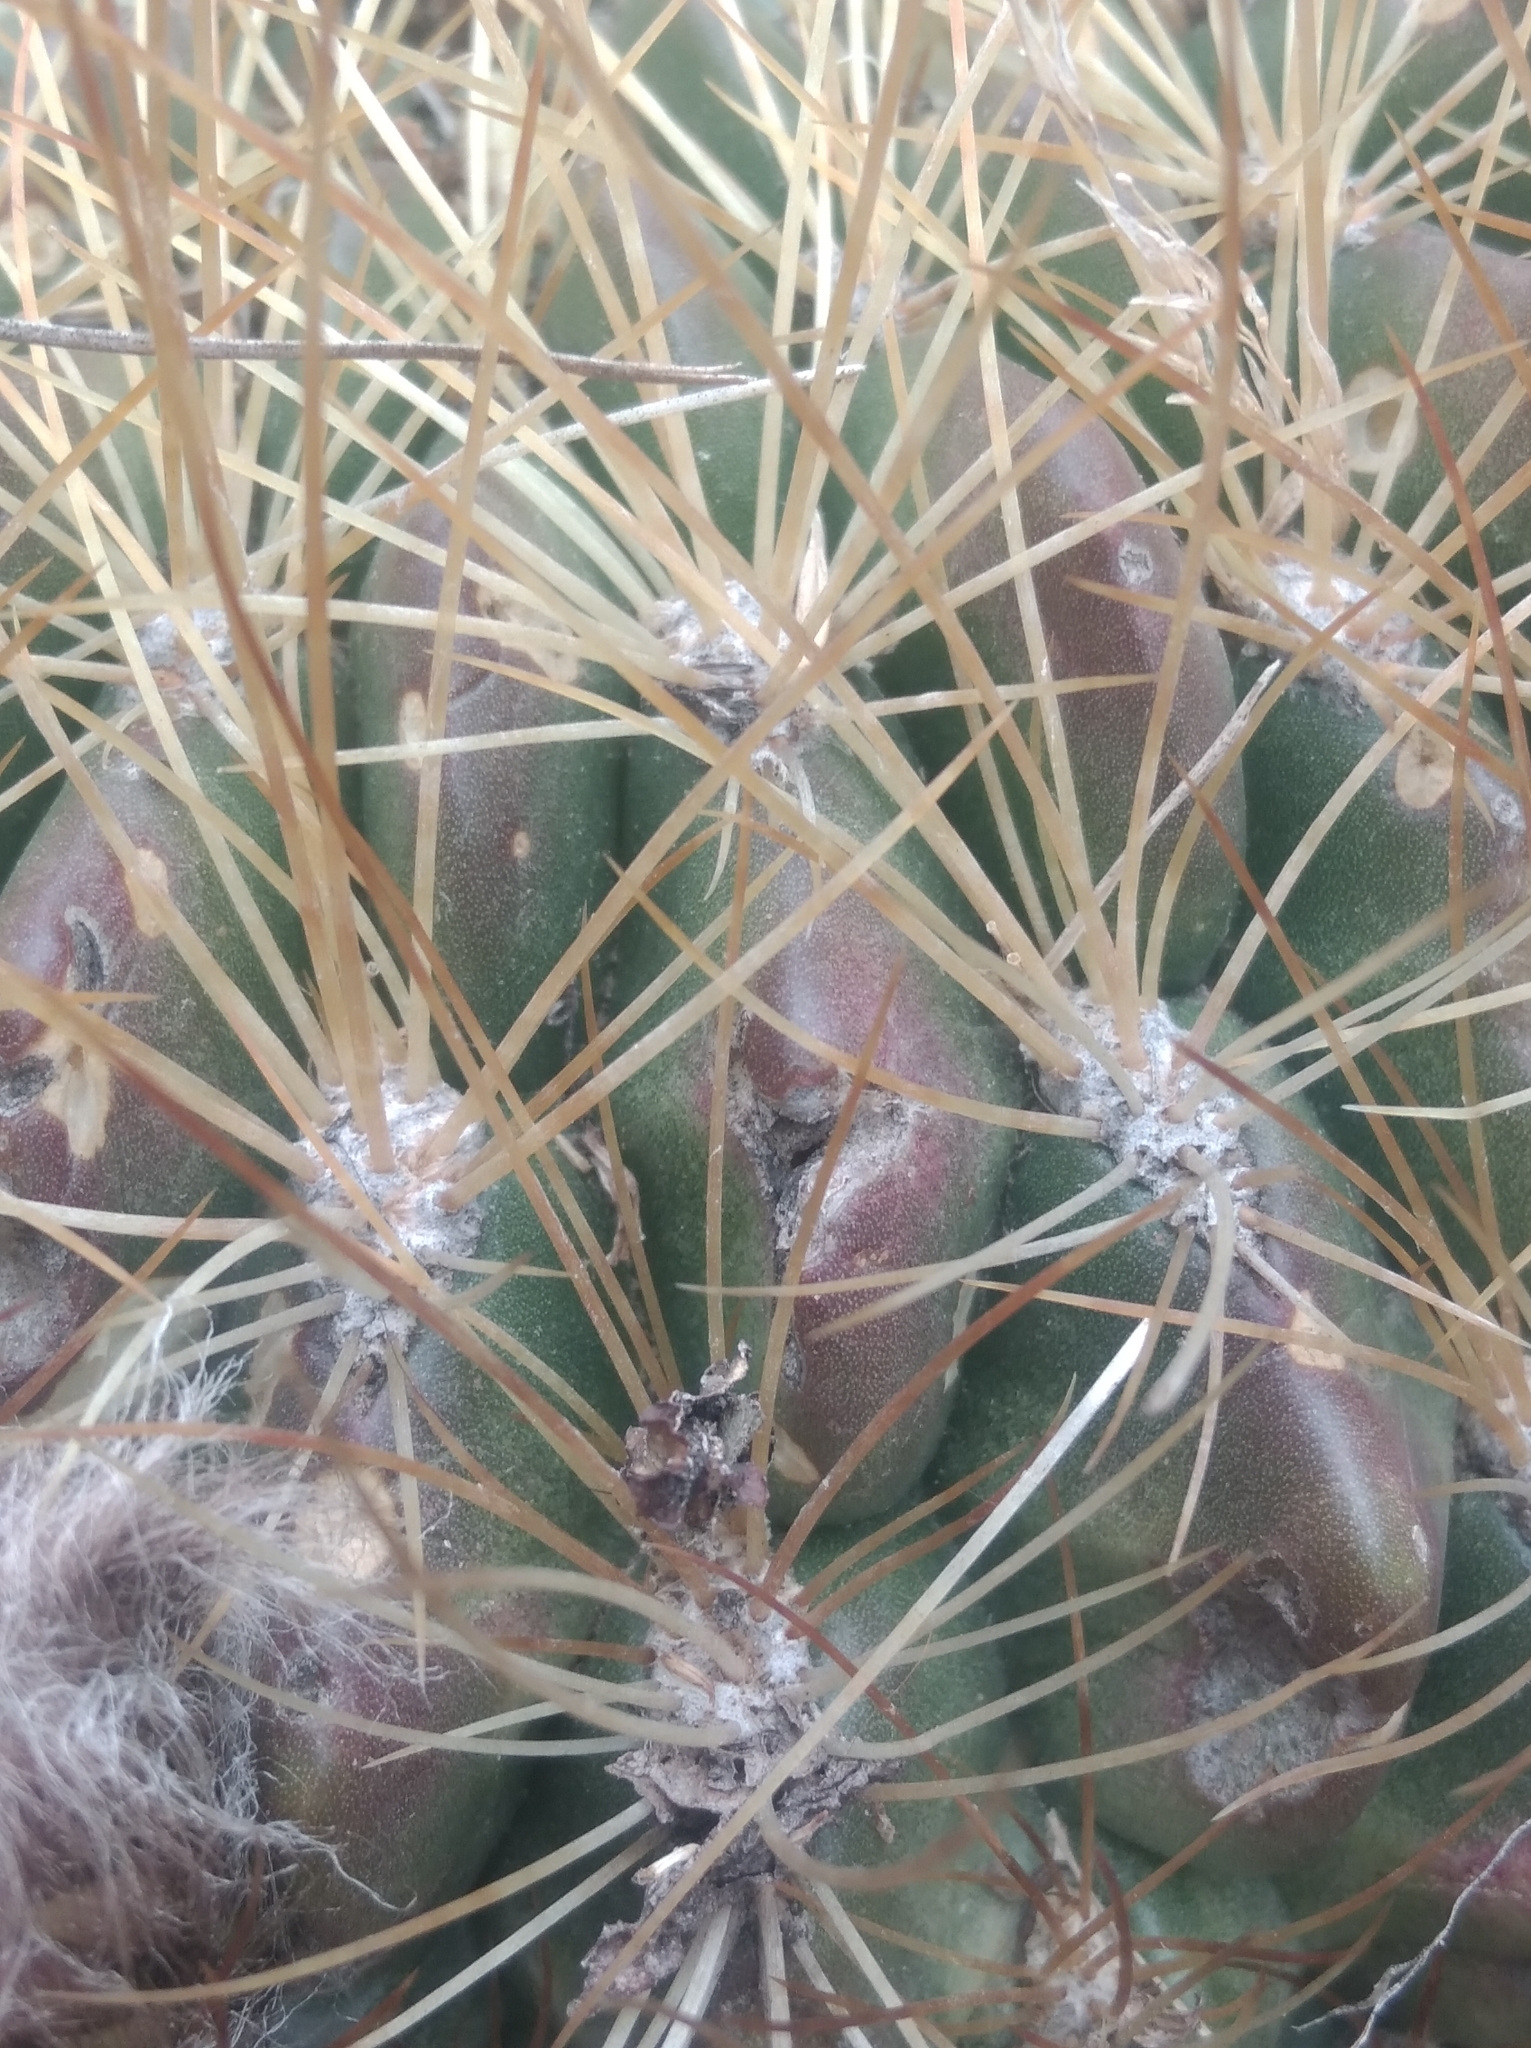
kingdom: Plantae
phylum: Tracheophyta
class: Magnoliopsida
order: Caryophyllales
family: Cactaceae
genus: Lobivia
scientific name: Lobivia chrysochete
